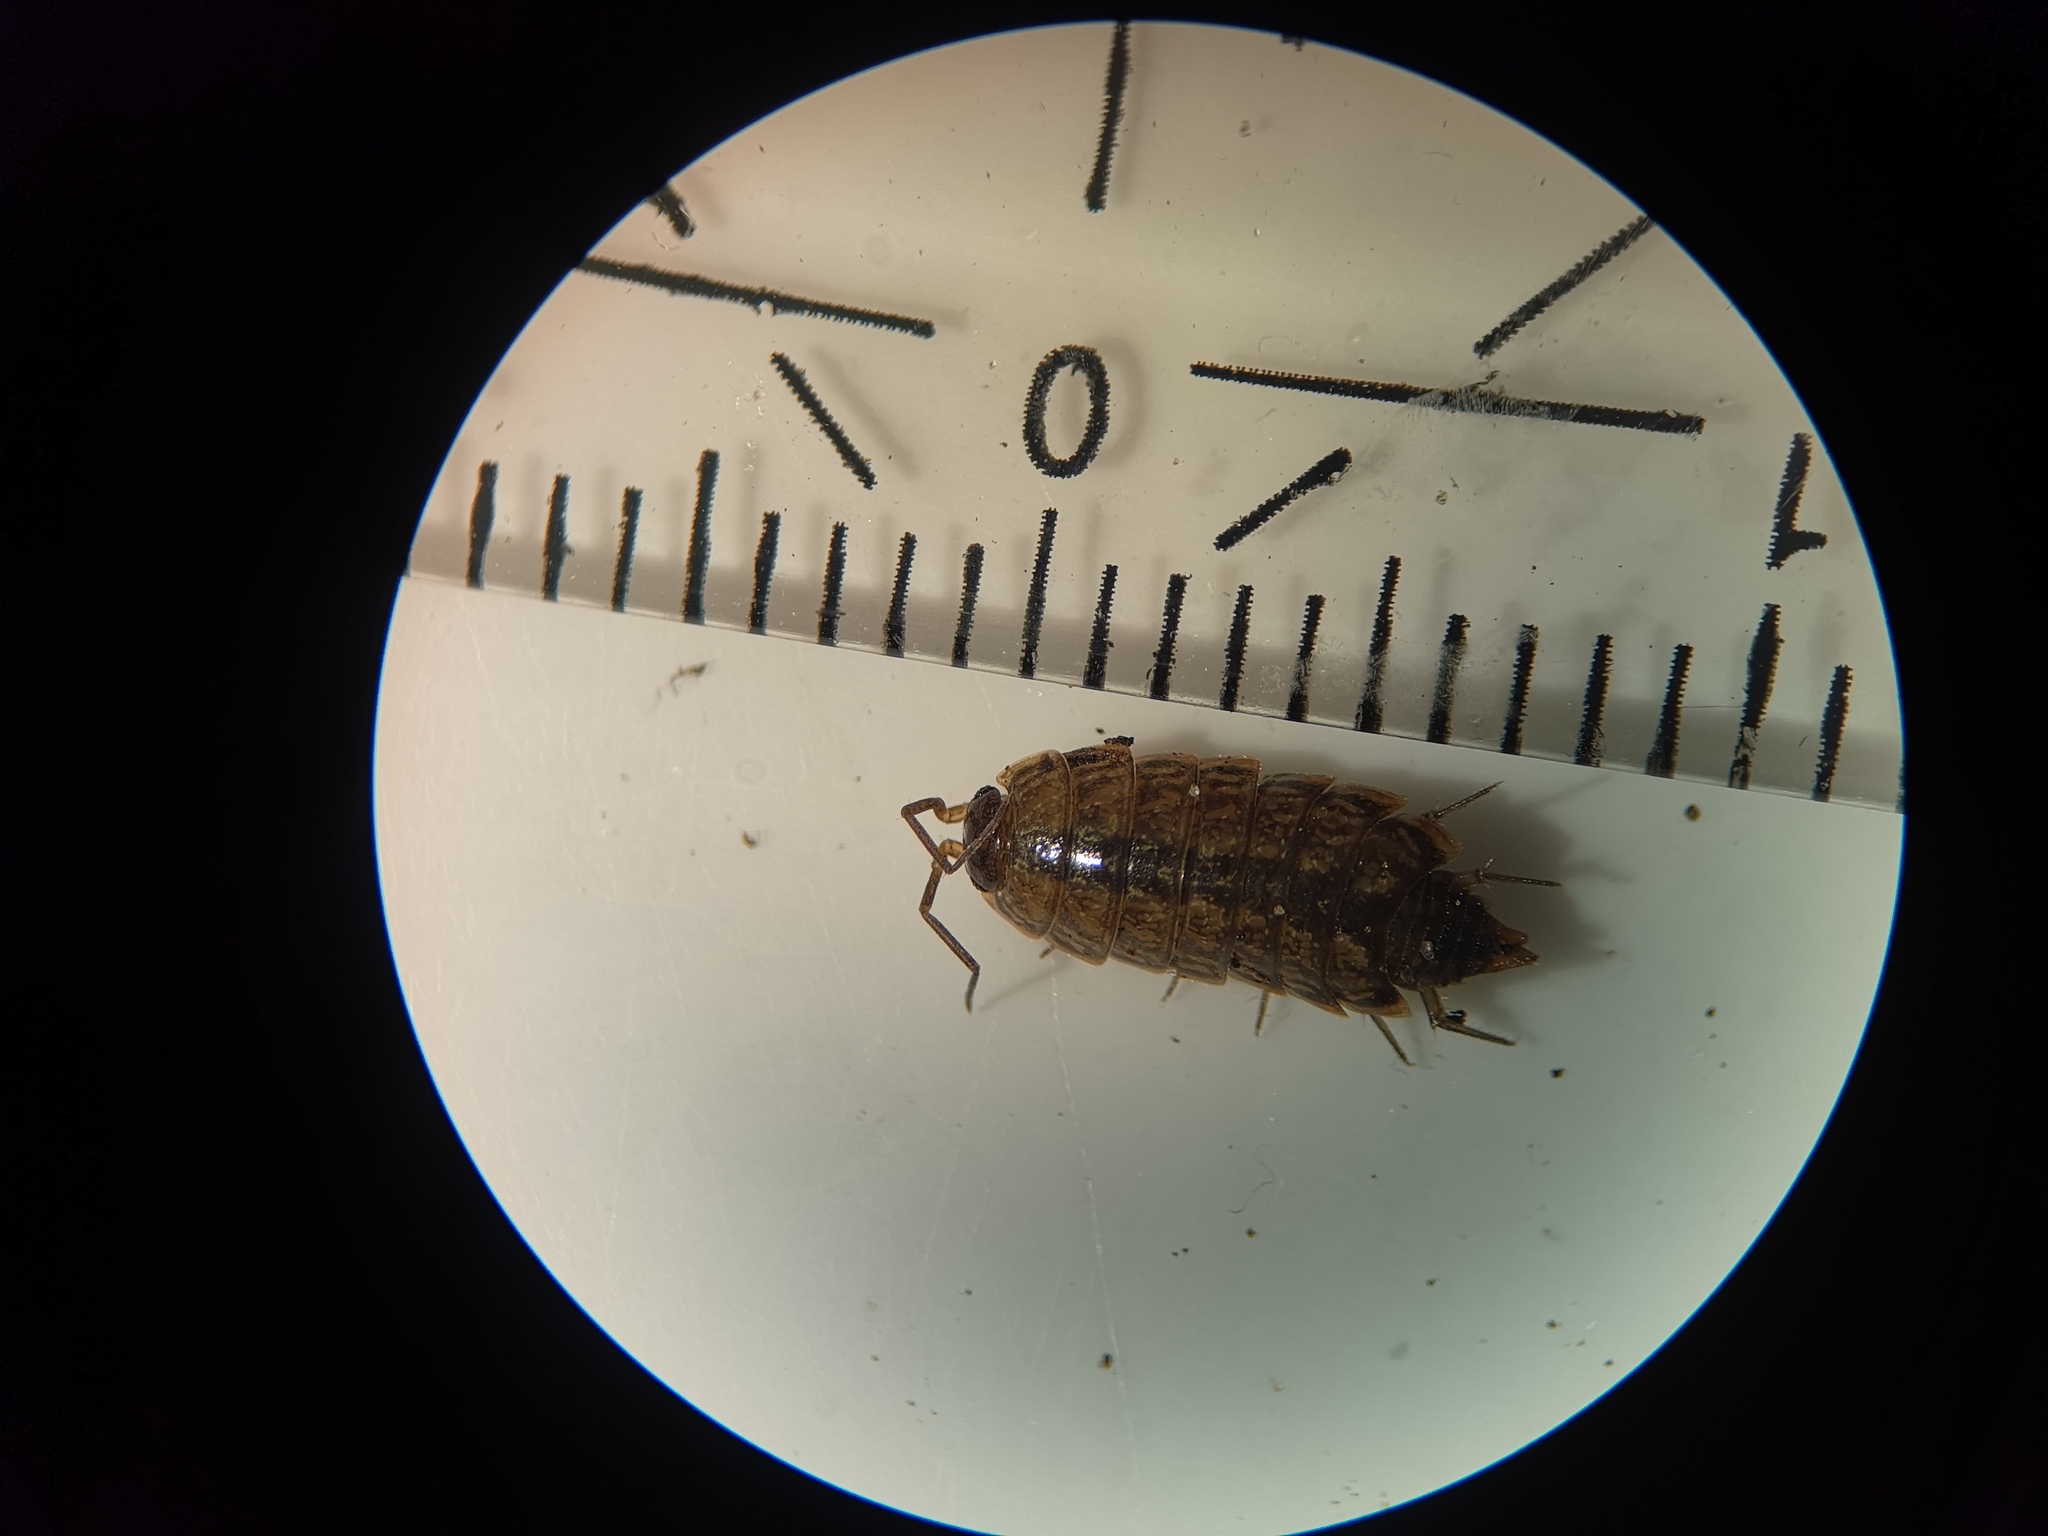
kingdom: Animalia
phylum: Arthropoda
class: Malacostraca
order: Isopoda
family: Philosciidae
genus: Philoscia
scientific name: Philoscia muscorum
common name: Common striped woodlouse
